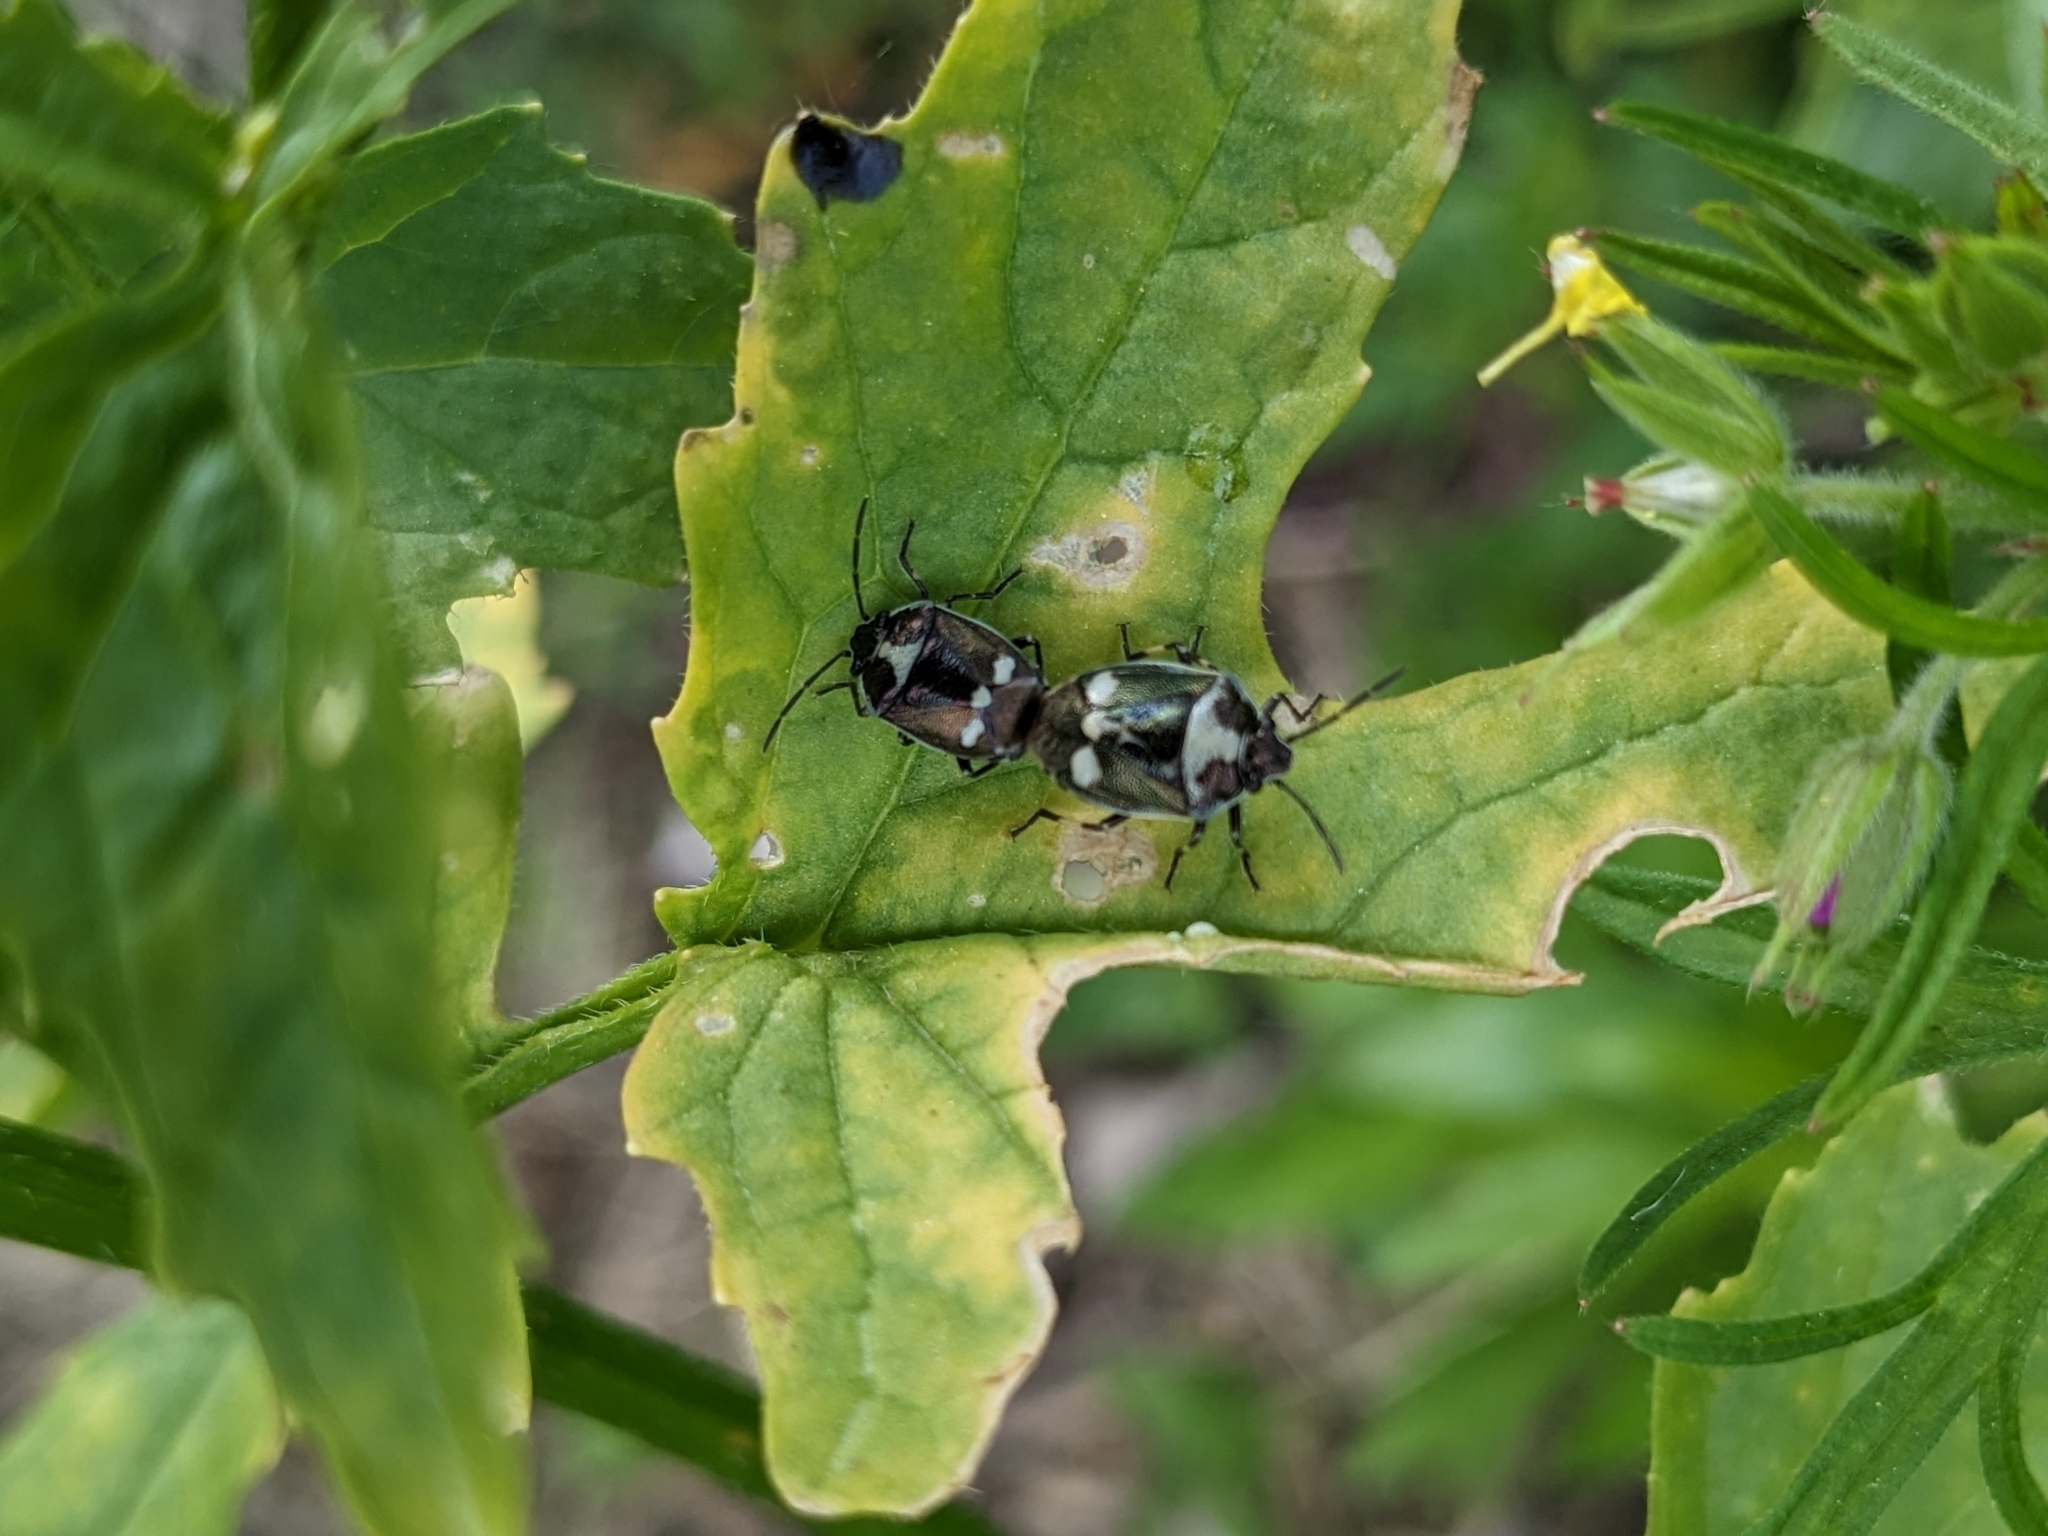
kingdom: Animalia
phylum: Arthropoda
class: Insecta
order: Hemiptera
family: Pentatomidae
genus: Eurydema
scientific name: Eurydema oleracea
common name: Cabbage bug
